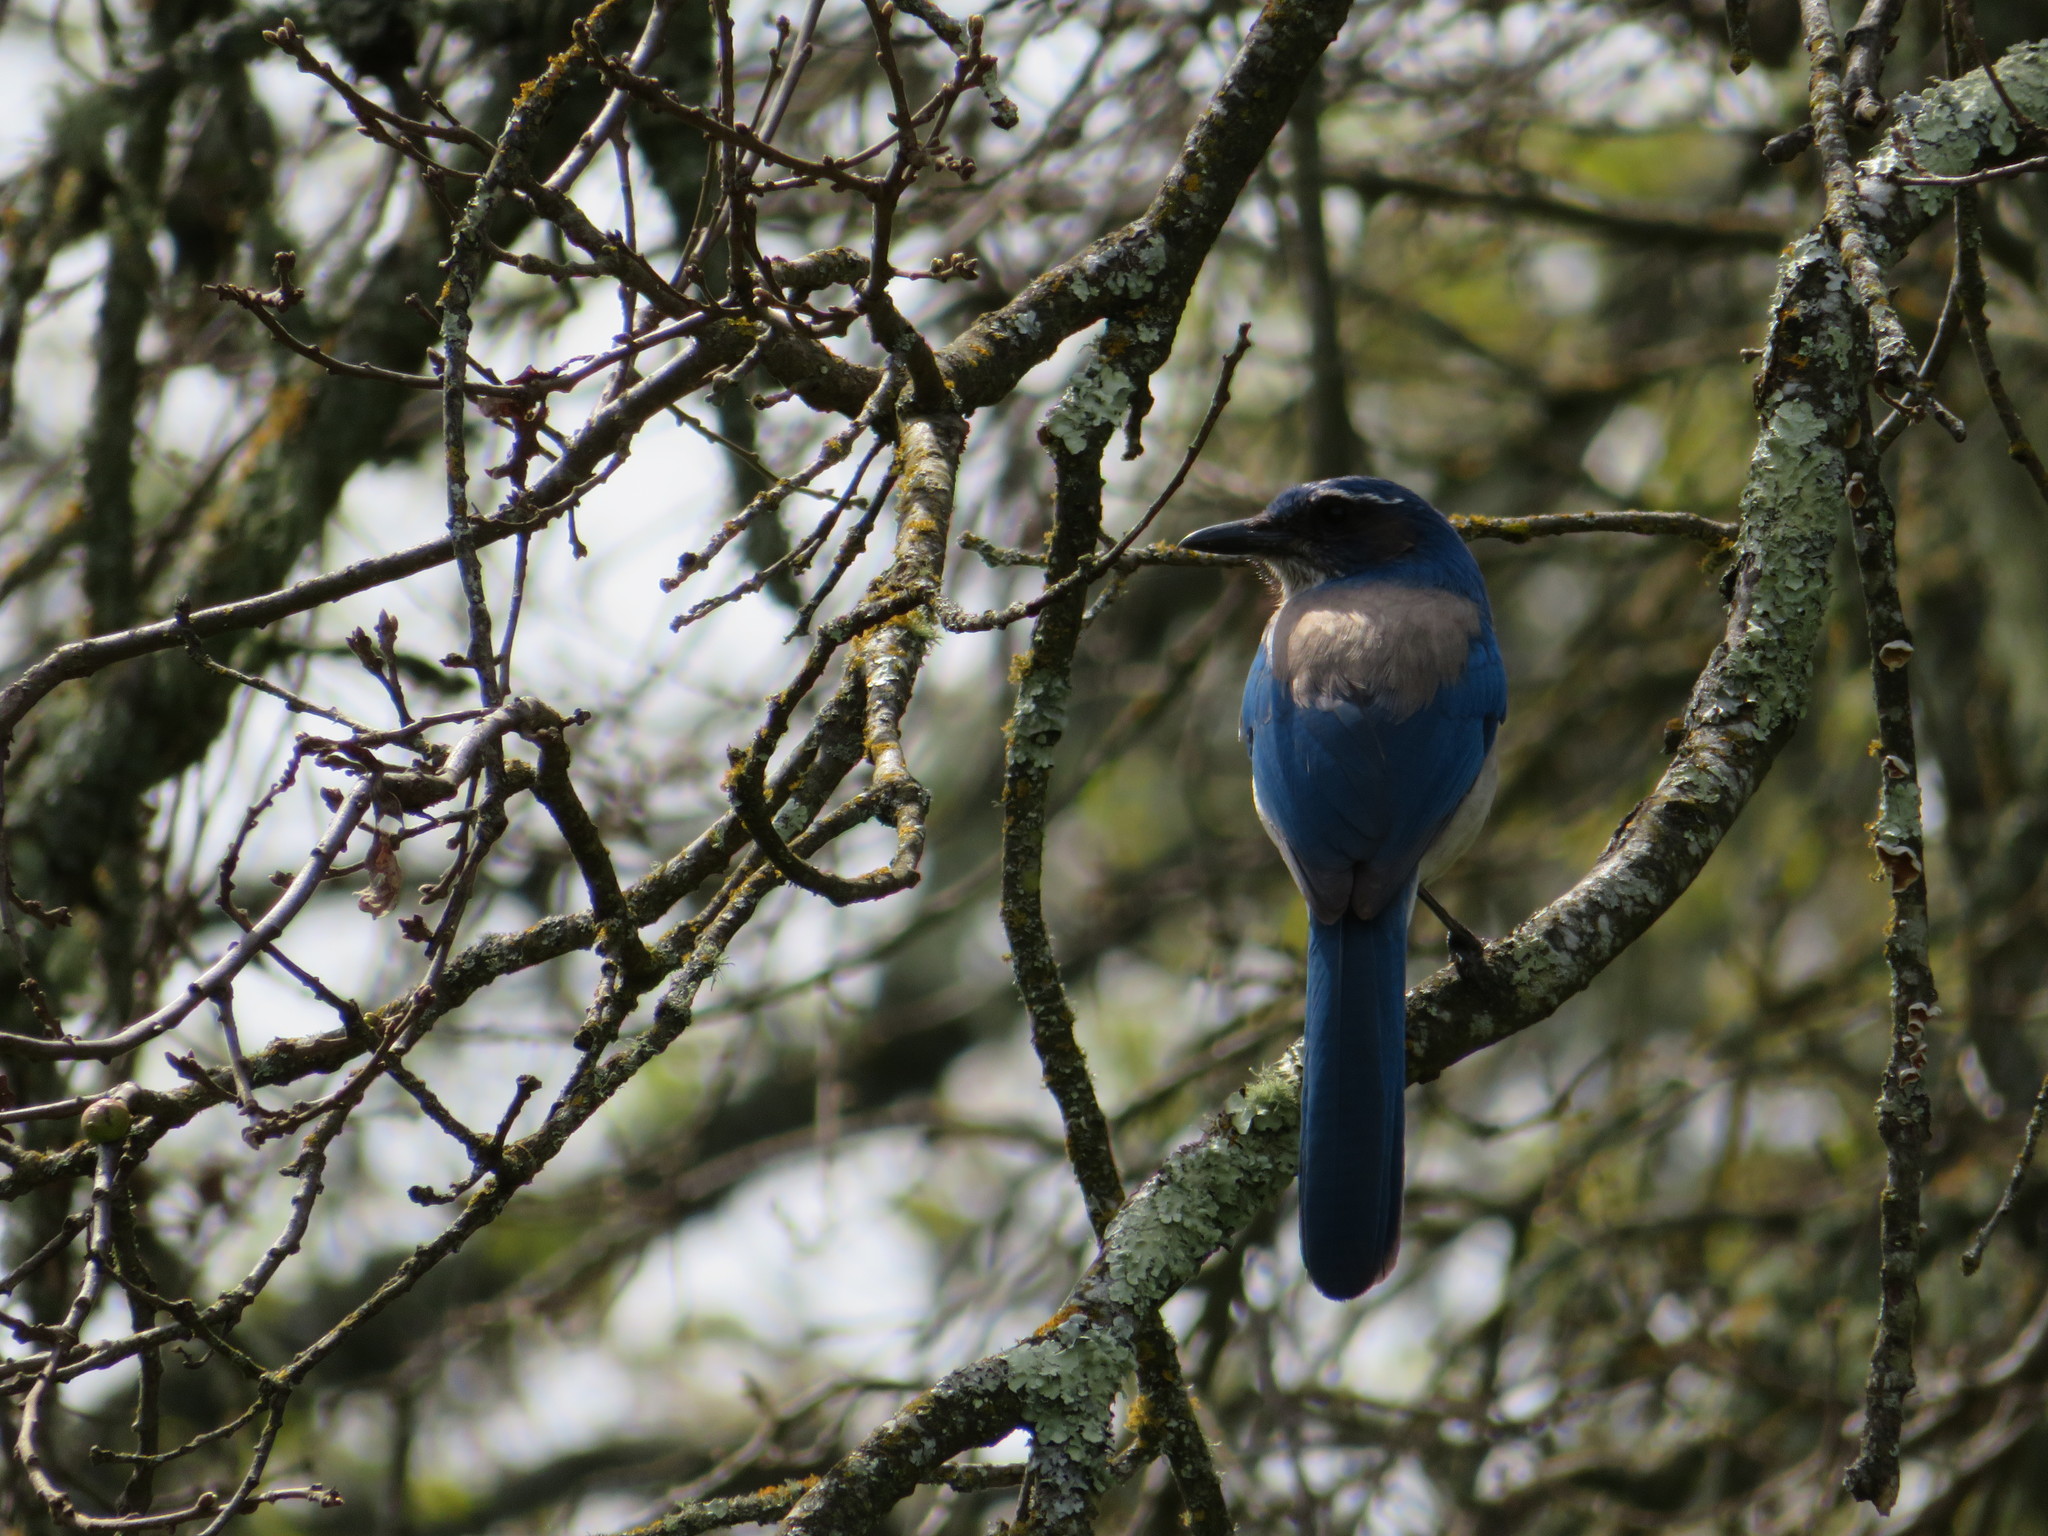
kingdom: Animalia
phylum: Chordata
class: Aves
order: Passeriformes
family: Corvidae
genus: Aphelocoma
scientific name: Aphelocoma californica
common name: California scrub-jay
